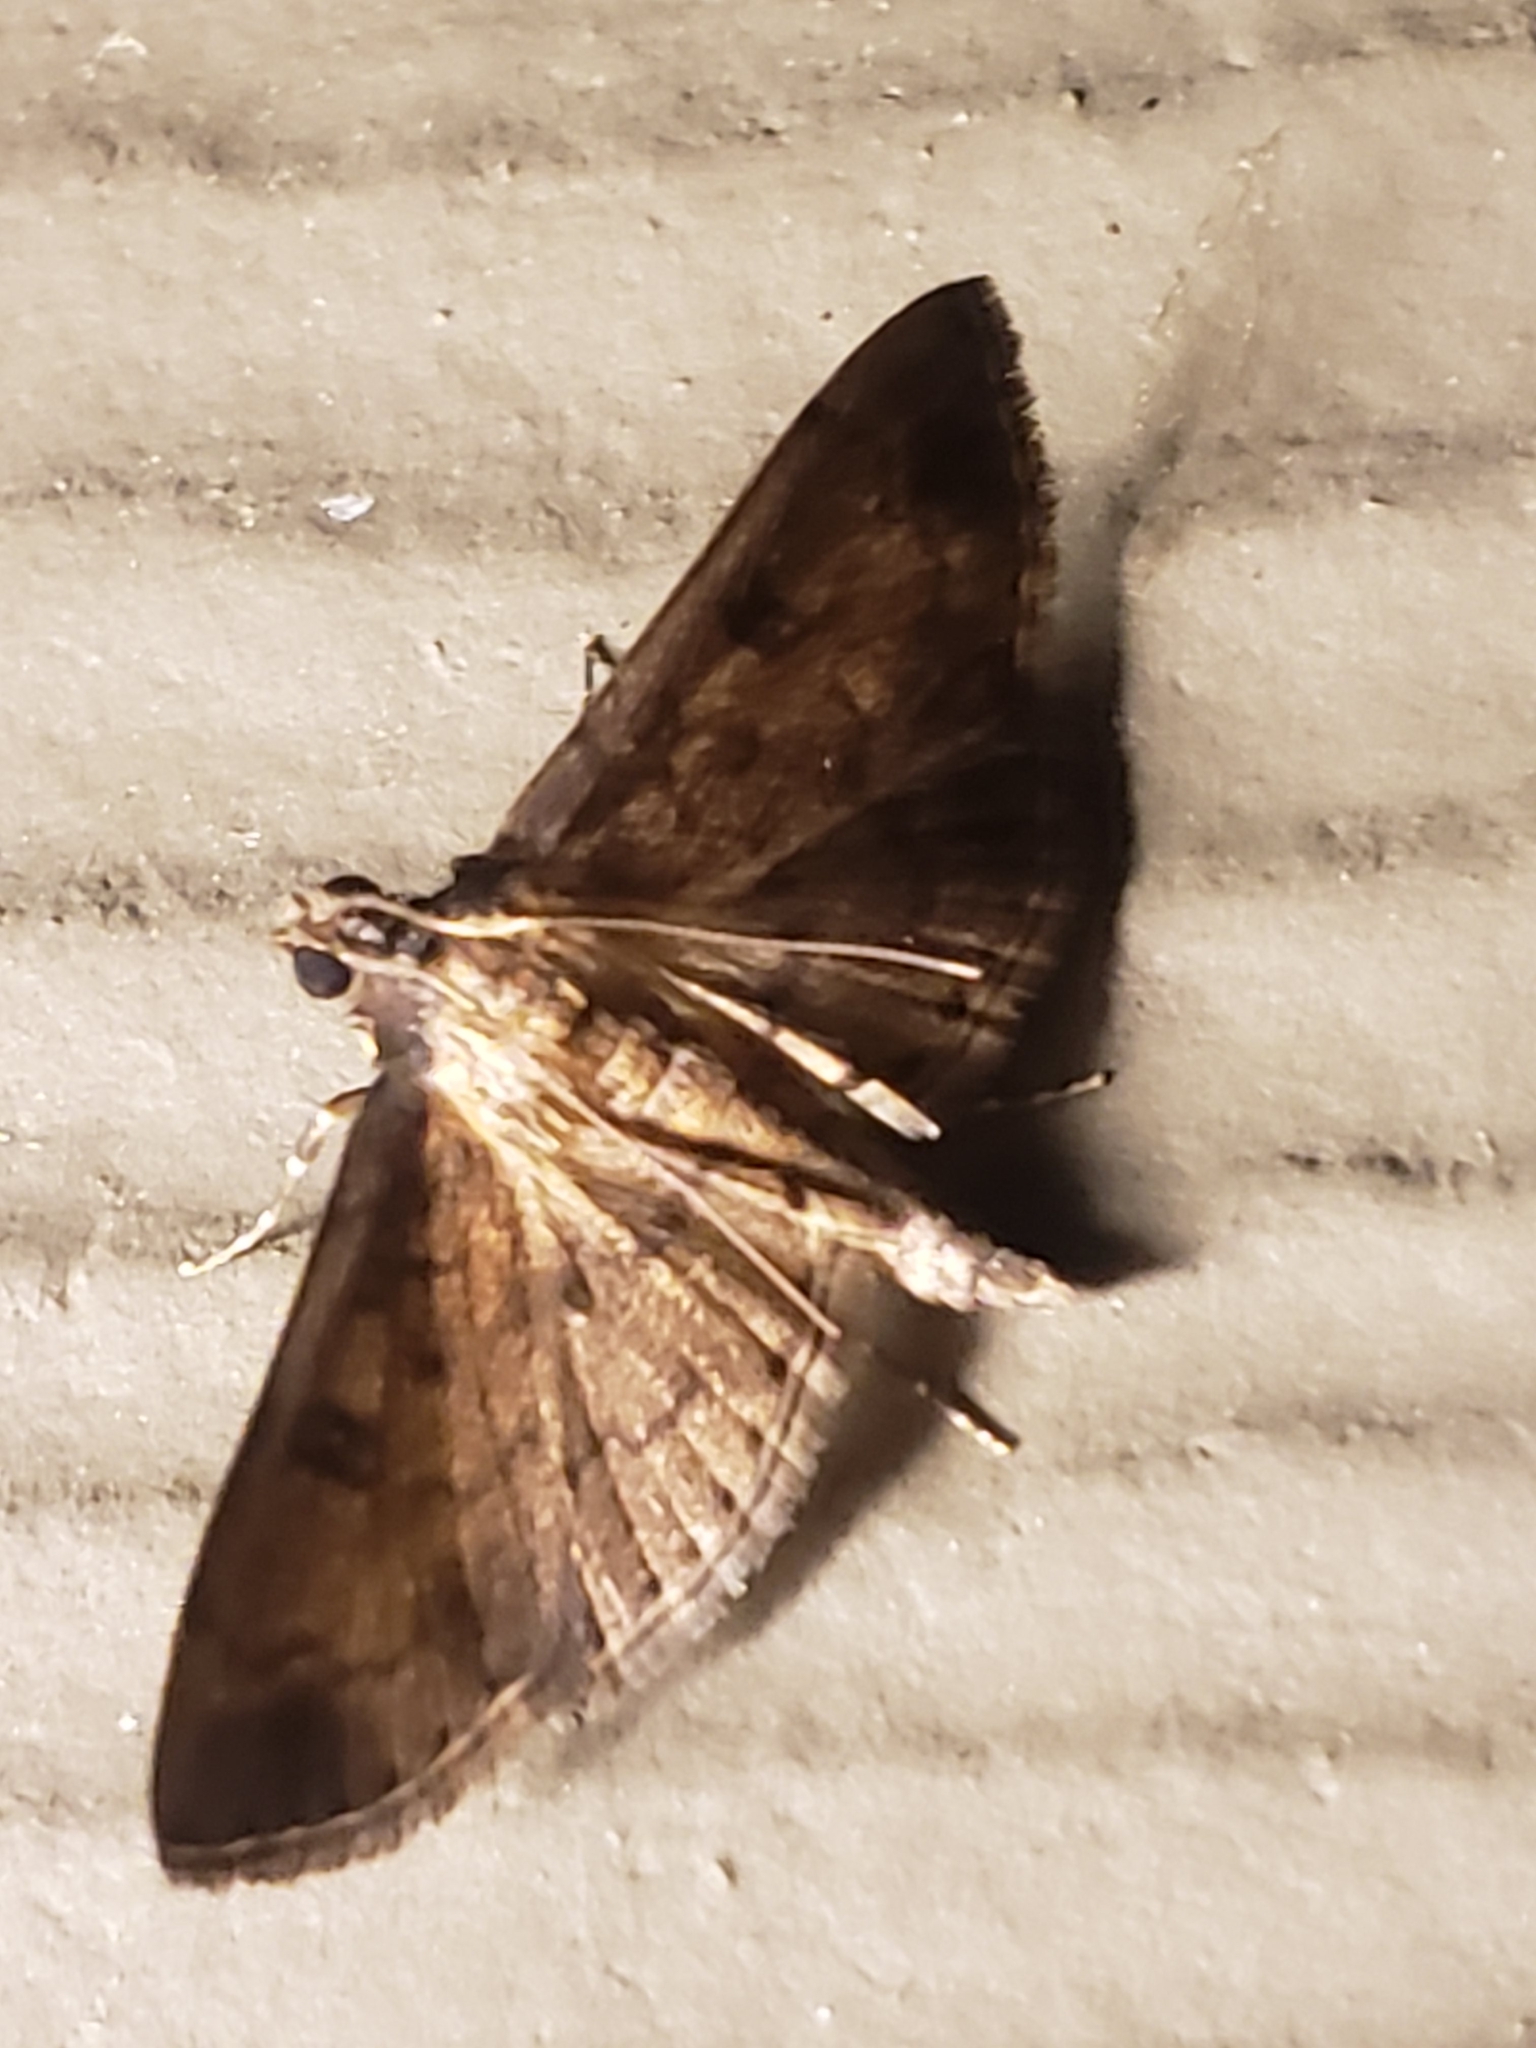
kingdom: Animalia
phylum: Arthropoda
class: Insecta
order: Lepidoptera
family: Crambidae
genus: Nacoleia
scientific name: Nacoleia charesalis
